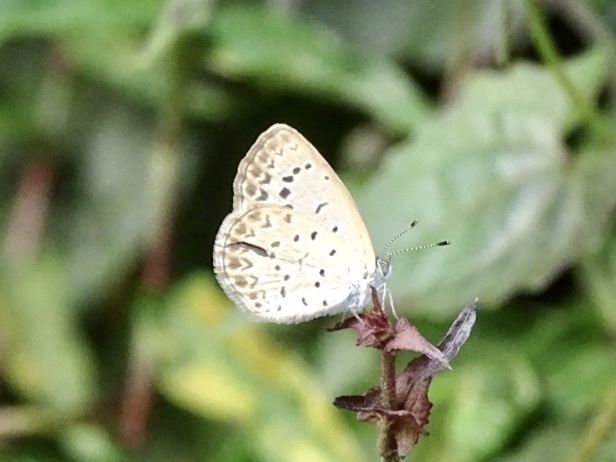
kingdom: Animalia
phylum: Arthropoda
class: Insecta
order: Lepidoptera
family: Lycaenidae
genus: Pseudozizeeria
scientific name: Pseudozizeeria maha
